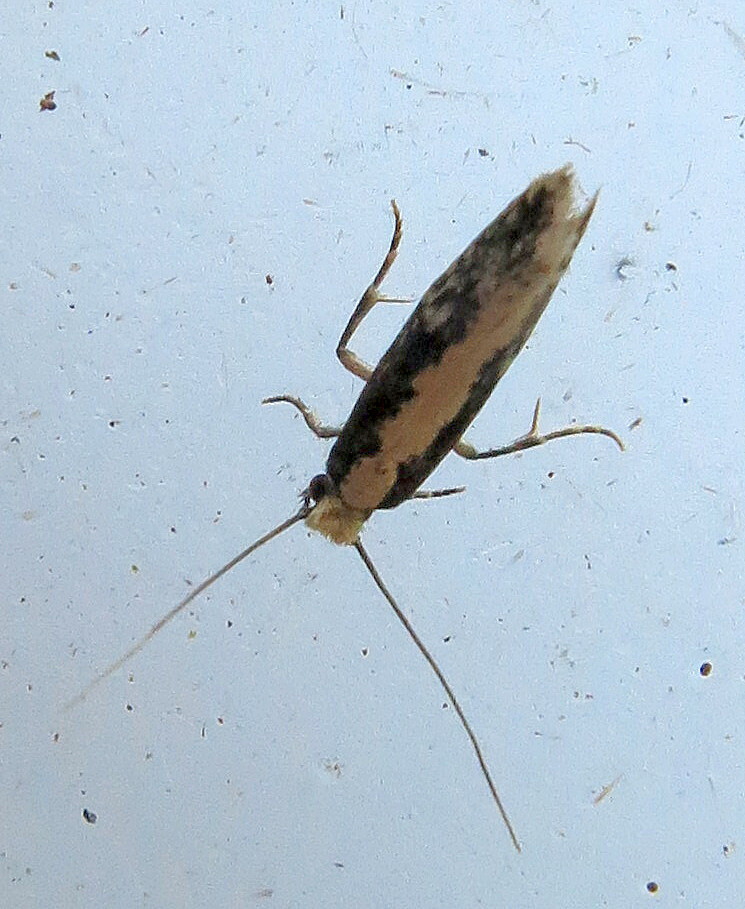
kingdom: Animalia
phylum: Arthropoda
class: Insecta
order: Lepidoptera
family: Tineidae
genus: Monopis
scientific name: Monopis crocicapitella
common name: Moth
